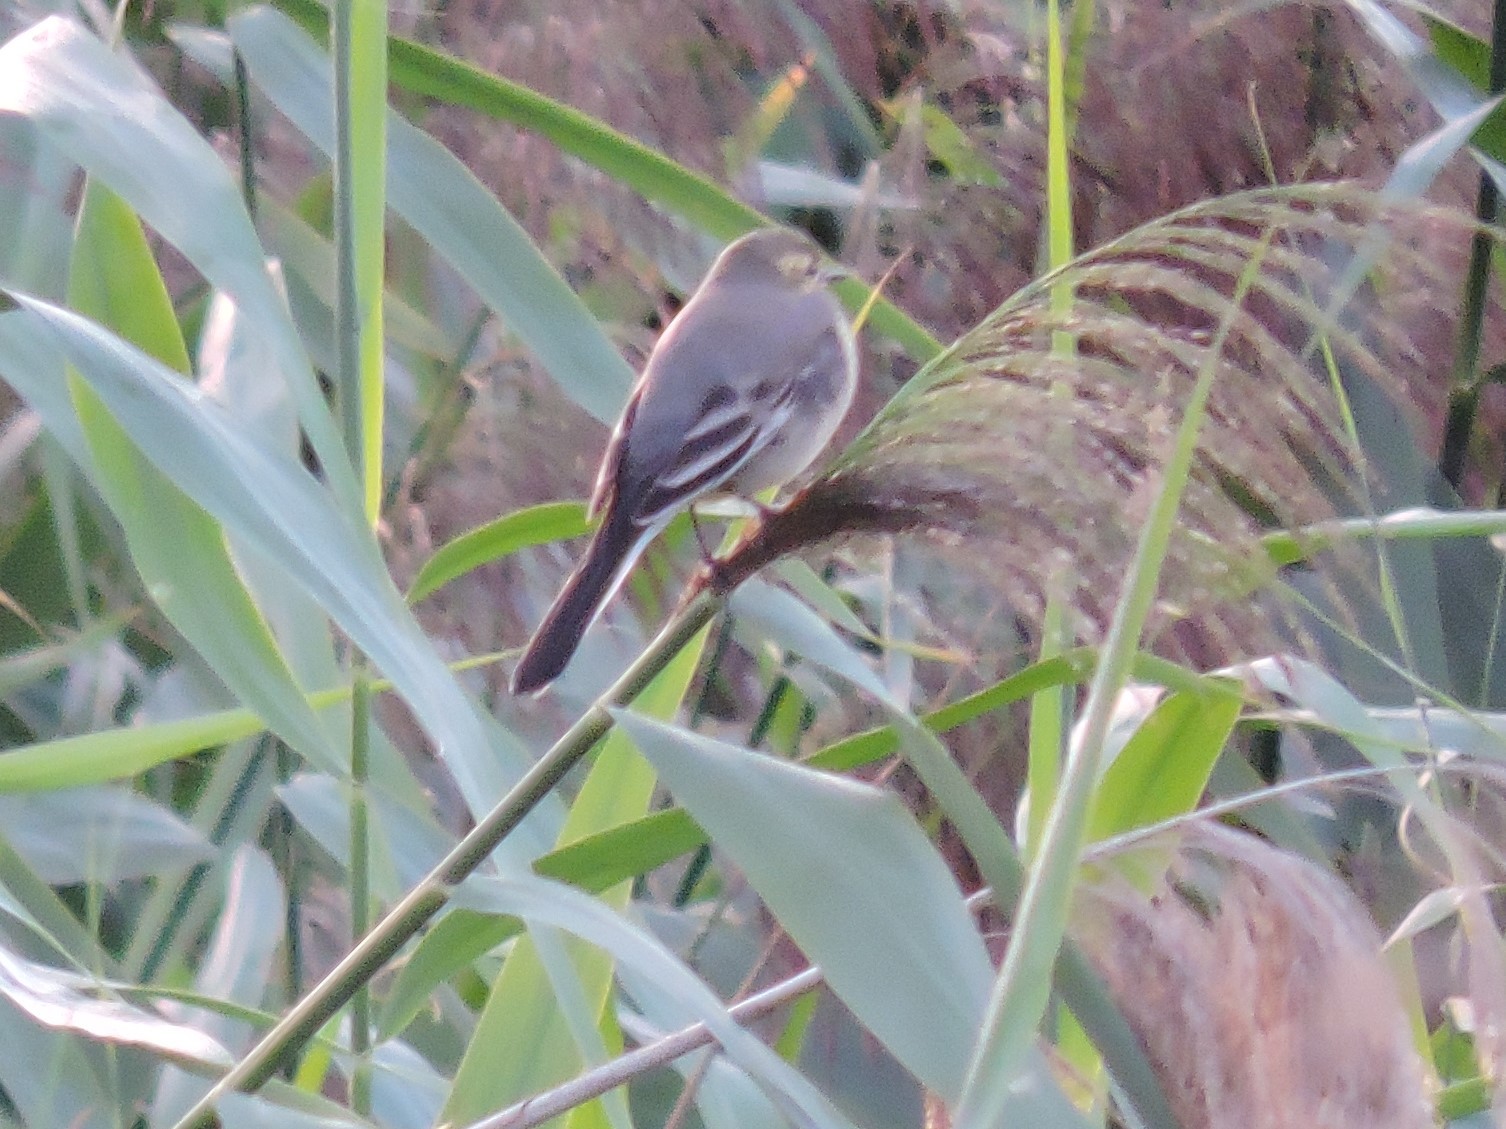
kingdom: Animalia
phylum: Chordata
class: Aves
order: Passeriformes
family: Motacillidae
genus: Motacilla
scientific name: Motacilla alba
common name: White wagtail
